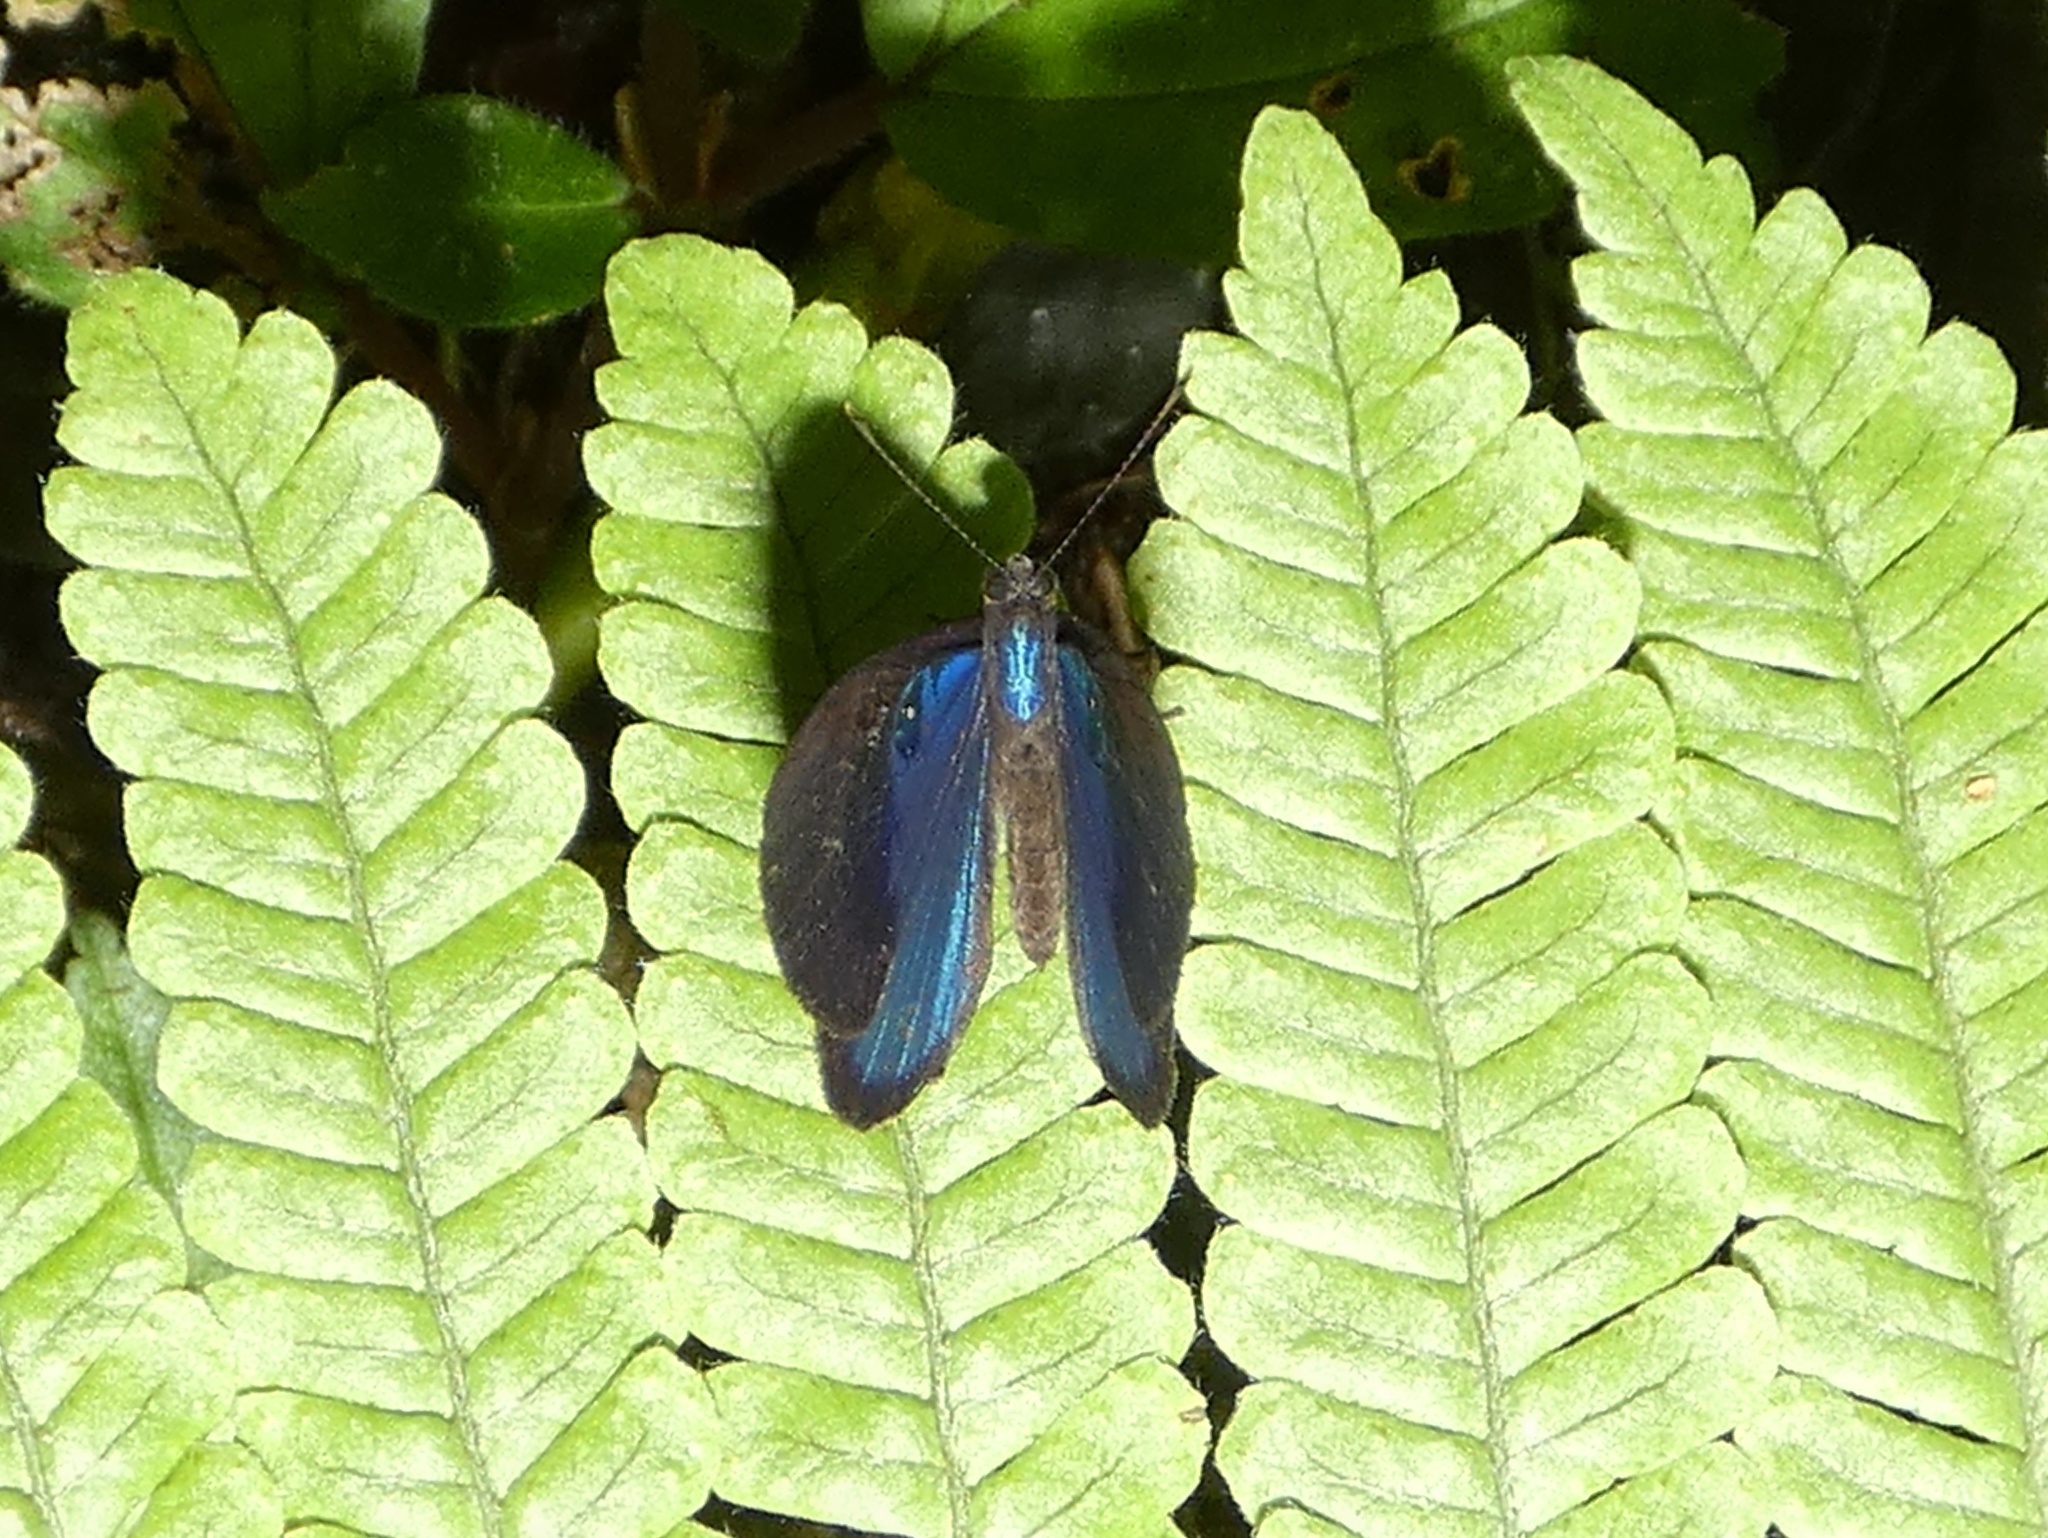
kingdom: Animalia
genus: Mesosemia
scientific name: Mesosemia asa
